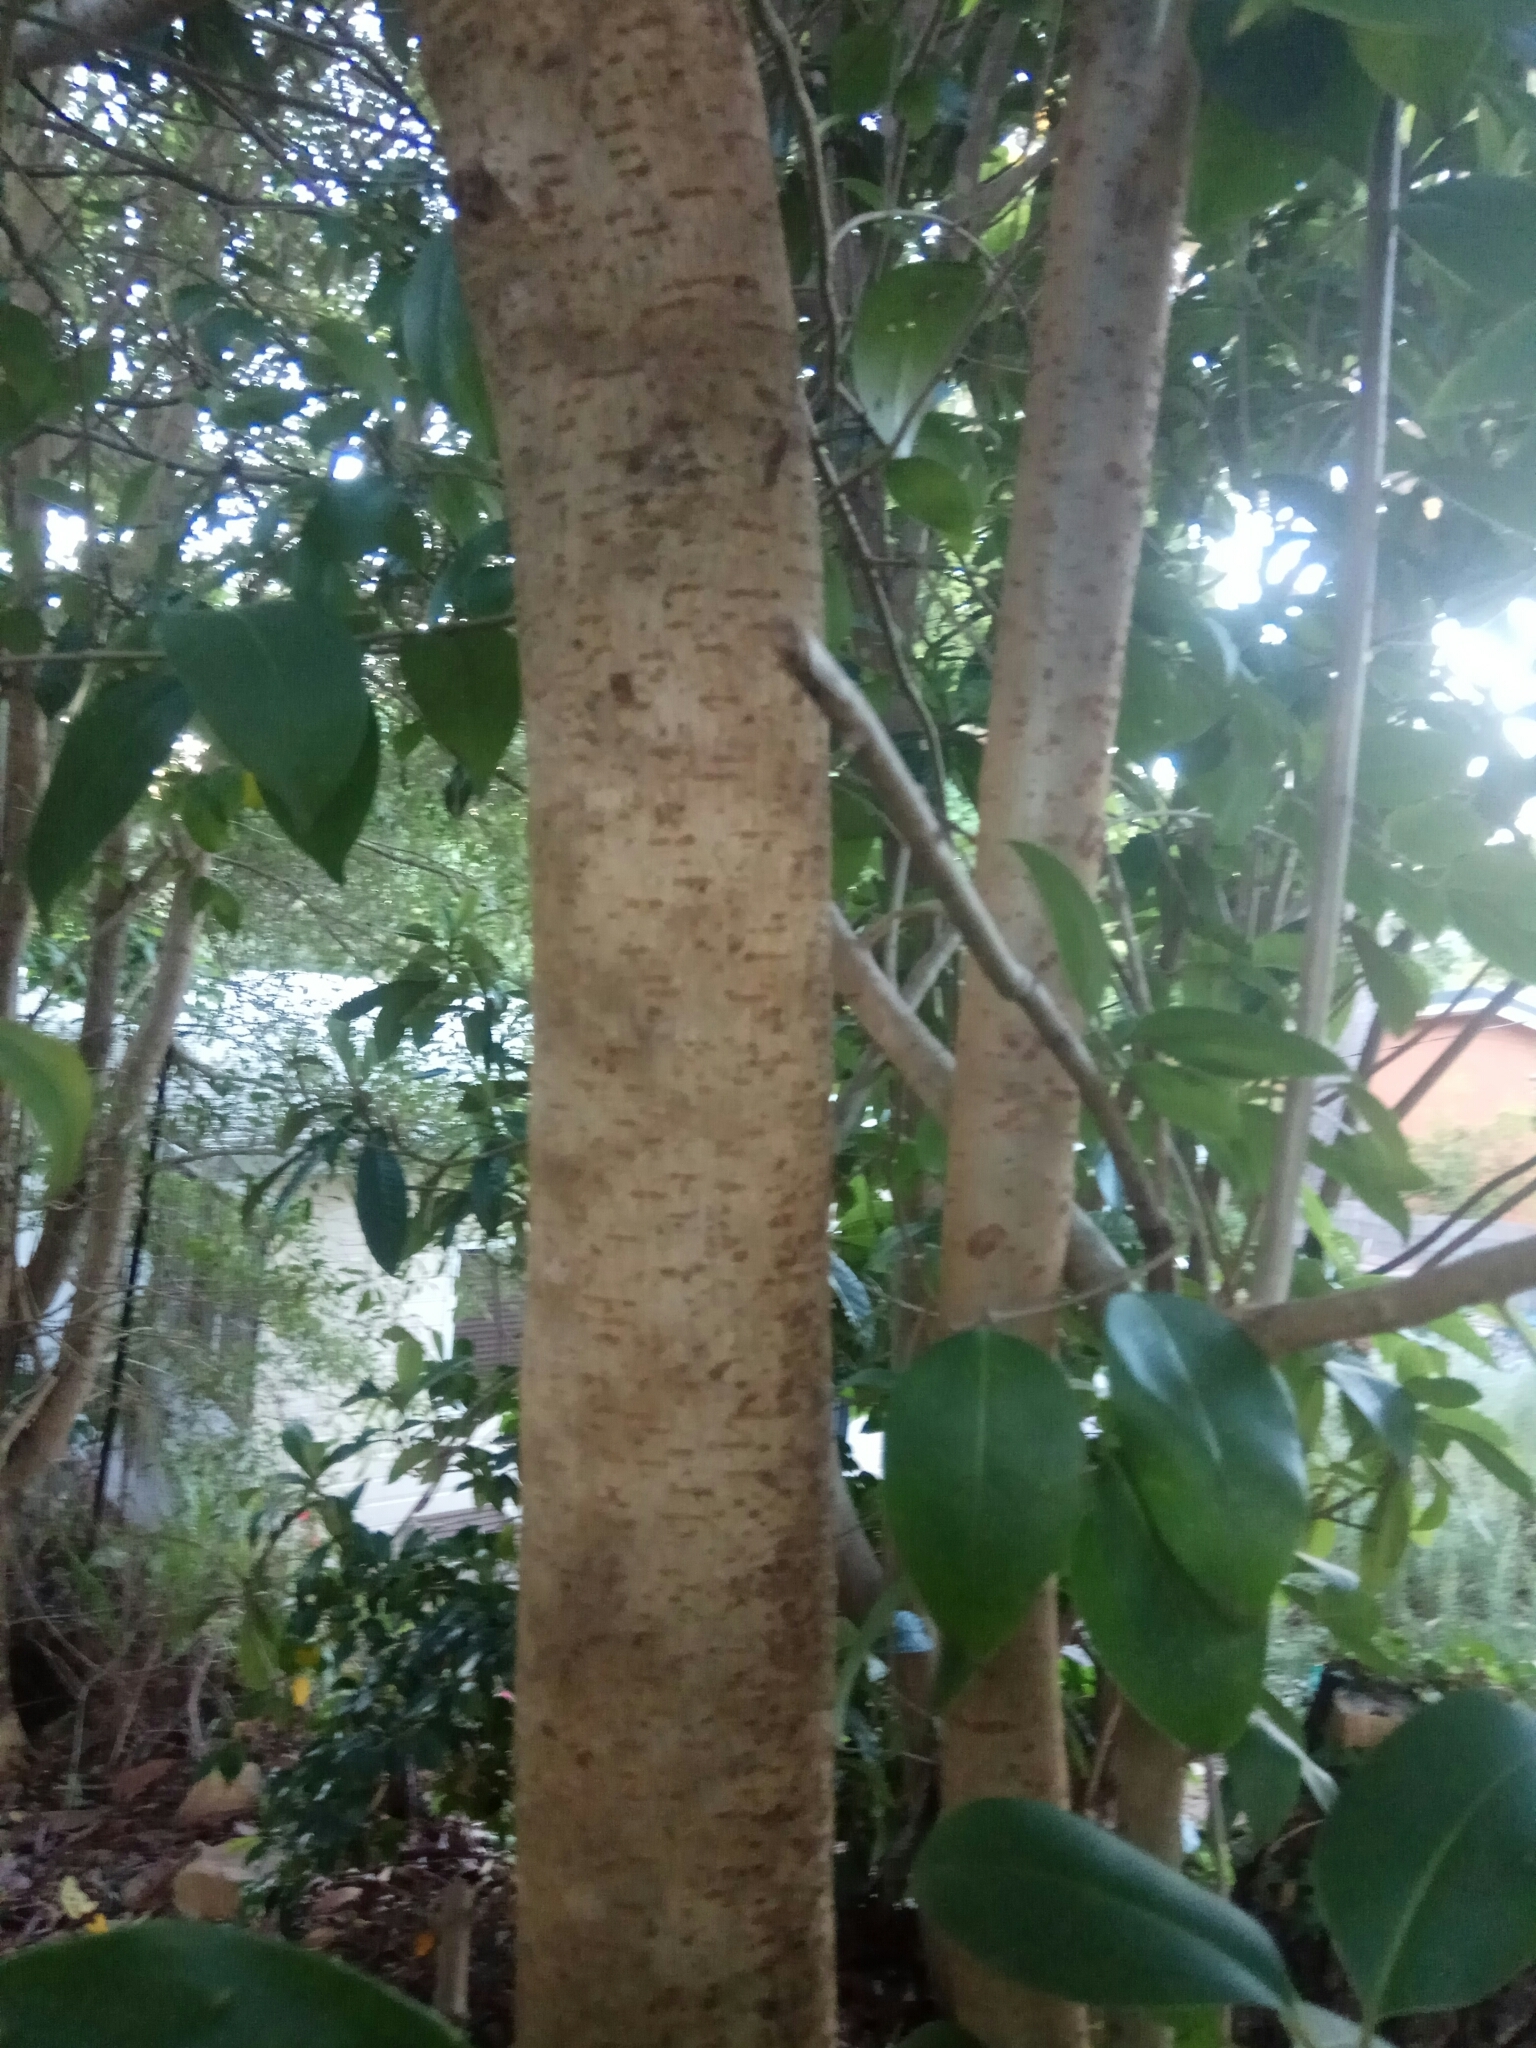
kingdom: Plantae
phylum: Tracheophyta
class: Magnoliopsida
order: Lamiales
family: Oleaceae
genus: Ligustrum
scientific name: Ligustrum lucidum
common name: Glossy privet
